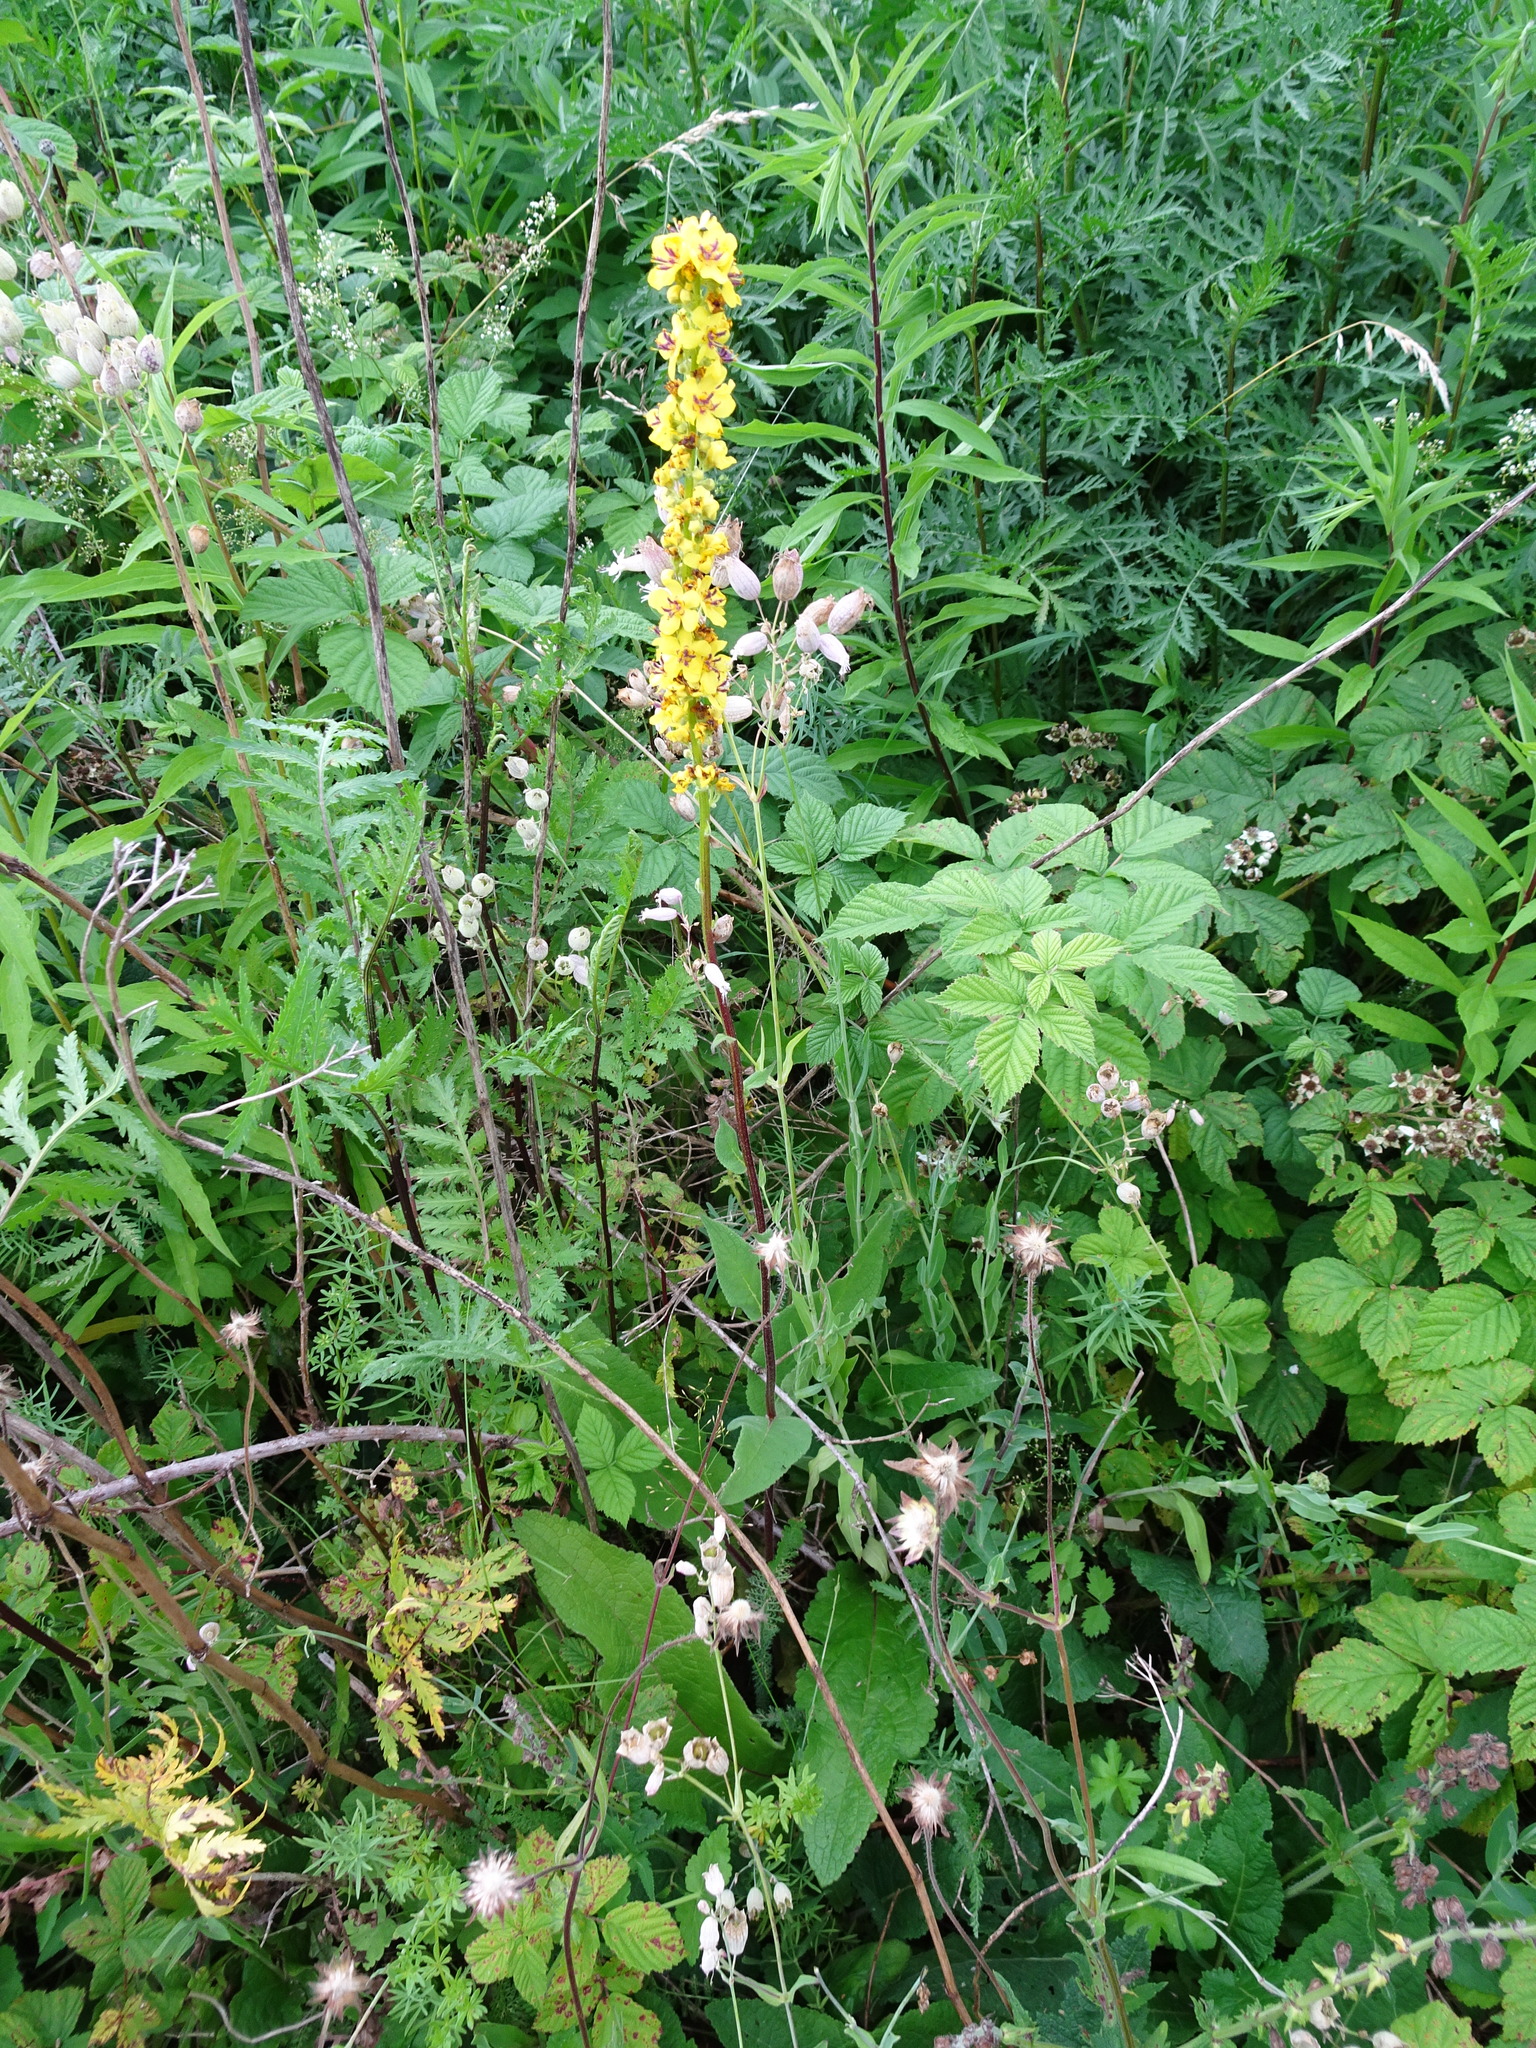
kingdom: Plantae
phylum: Tracheophyta
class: Magnoliopsida
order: Lamiales
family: Scrophulariaceae
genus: Verbascum
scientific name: Verbascum nigrum
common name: Dark mullein
